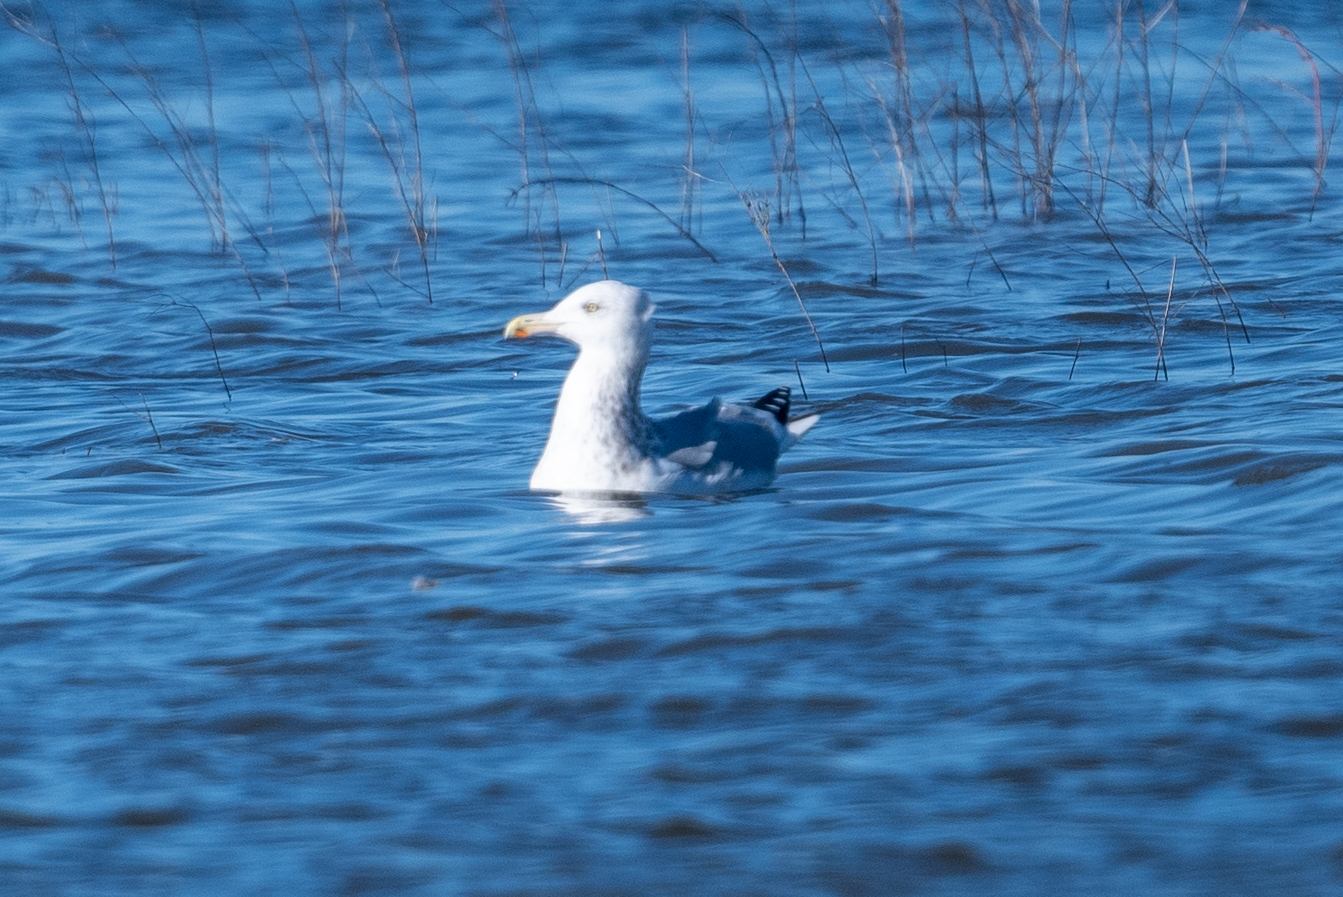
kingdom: Animalia
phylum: Chordata
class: Aves
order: Charadriiformes
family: Laridae
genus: Larus
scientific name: Larus argentatus
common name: Herring gull
